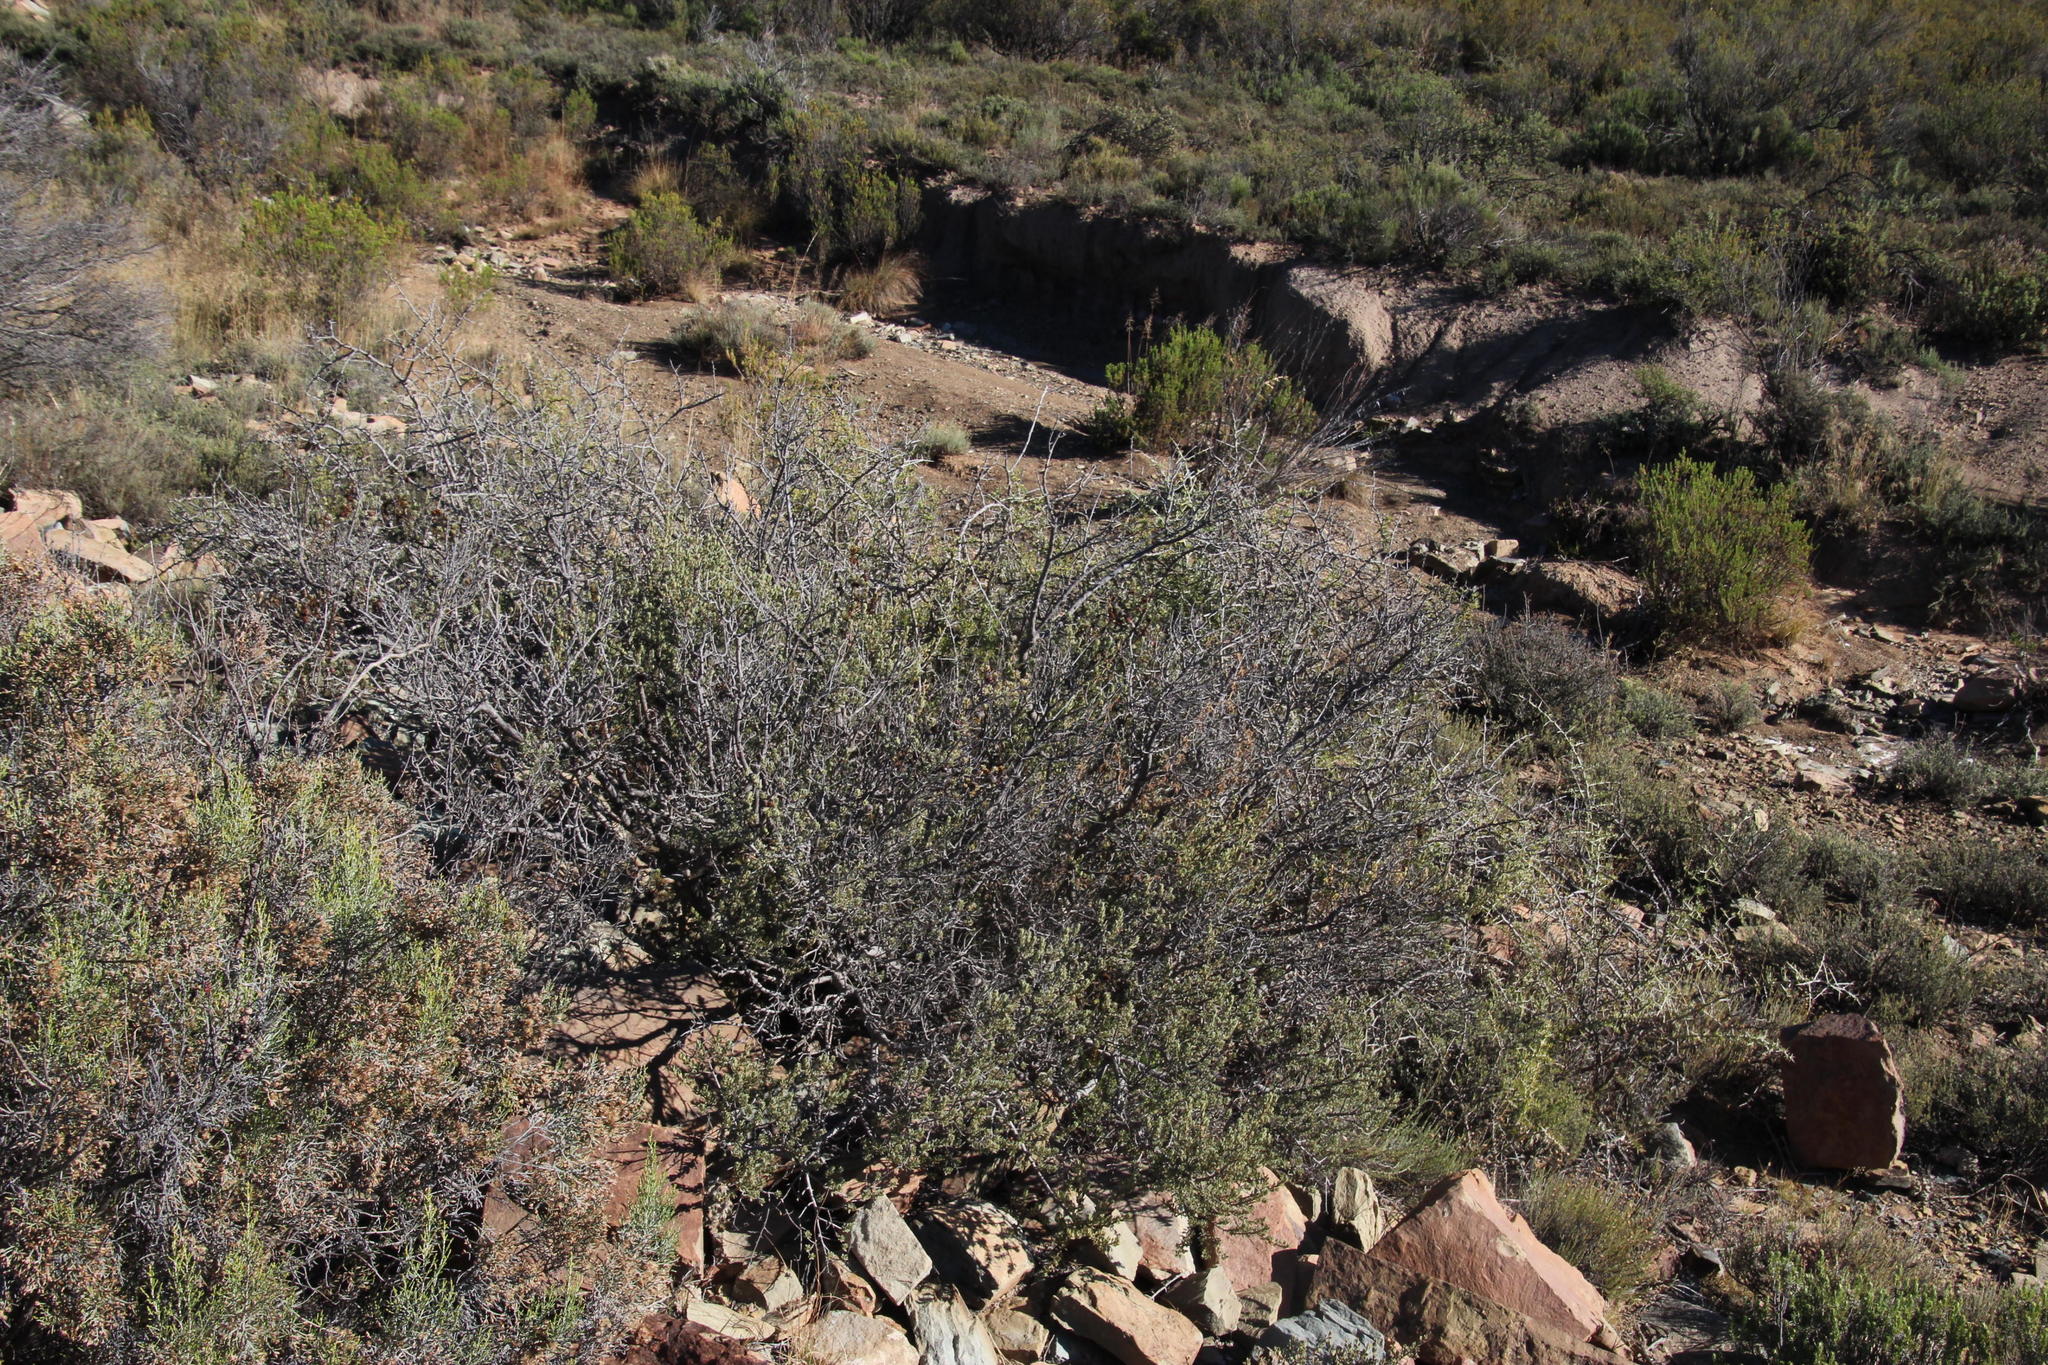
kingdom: Plantae
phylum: Tracheophyta
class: Magnoliopsida
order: Ericales
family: Ebenaceae
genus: Diospyros
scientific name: Diospyros pubescens
